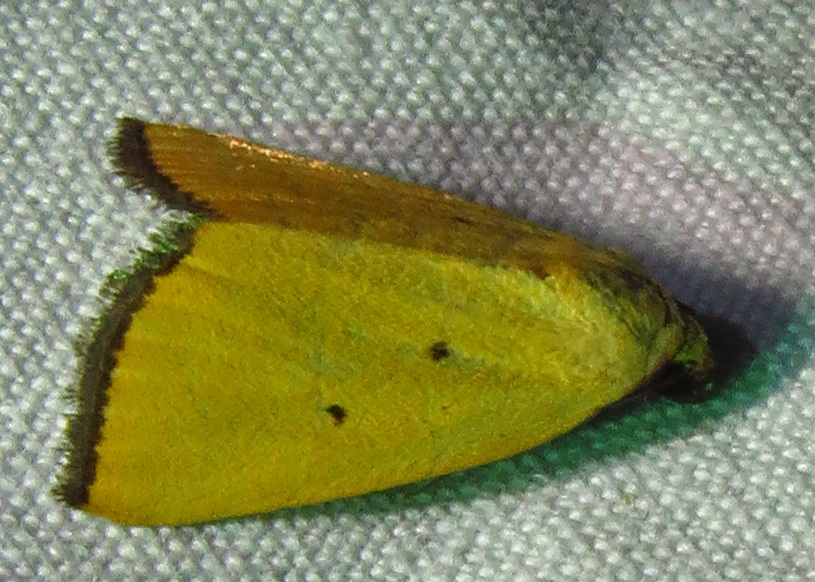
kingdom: Animalia
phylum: Arthropoda
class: Insecta
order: Lepidoptera
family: Noctuidae
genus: Marimatha
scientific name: Marimatha nigrofimbria
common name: Black-bordered lemon moth
